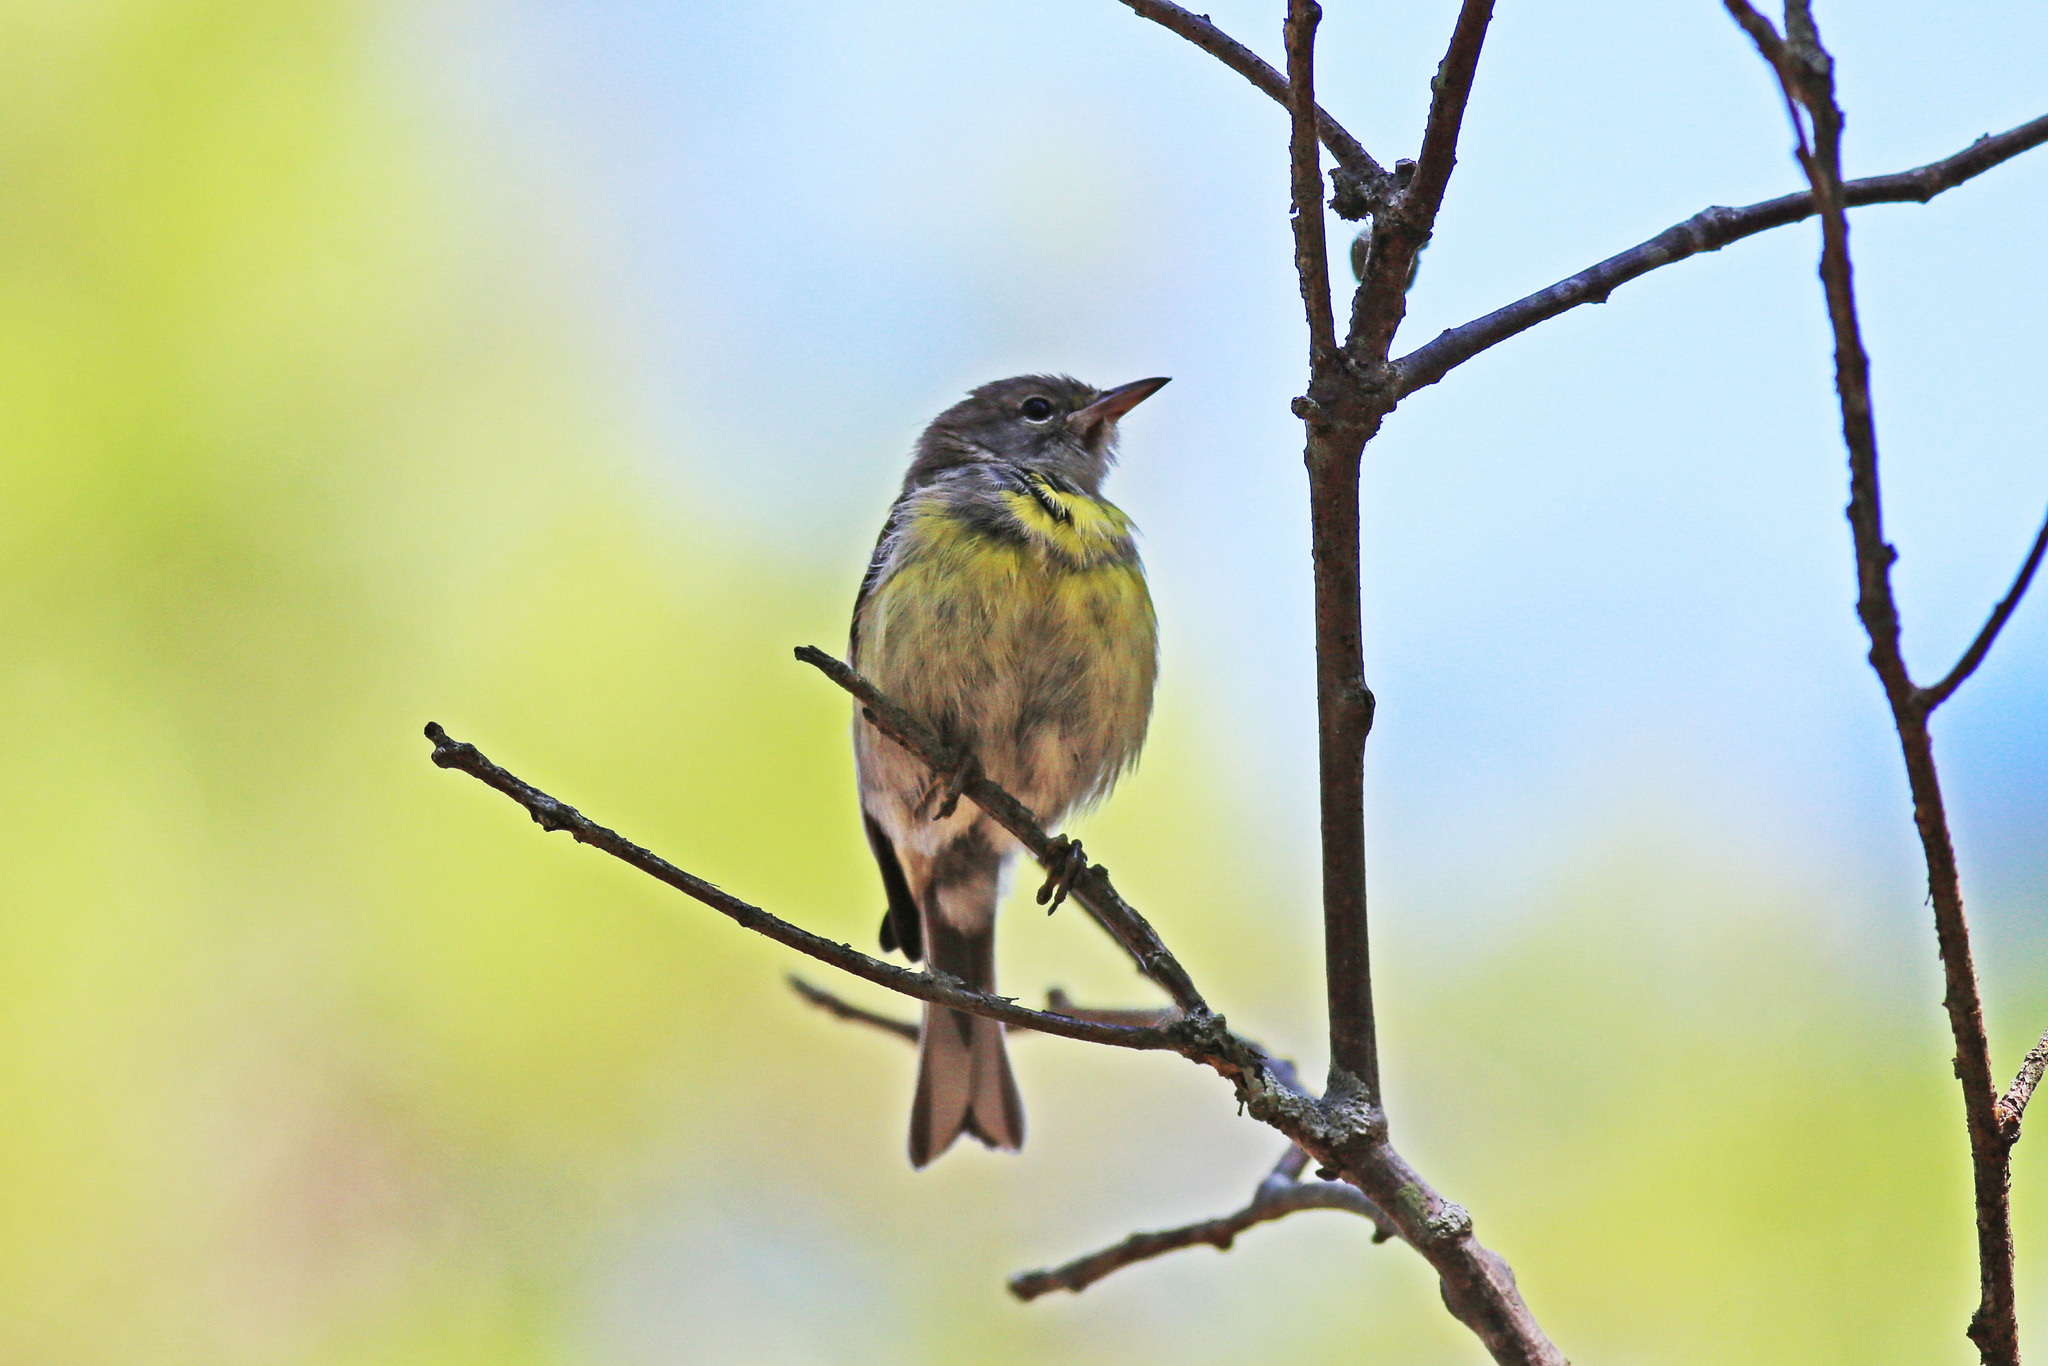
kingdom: Animalia
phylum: Chordata
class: Aves
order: Passeriformes
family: Parulidae
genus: Setophaga
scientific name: Setophaga pinus
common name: Pine warbler
